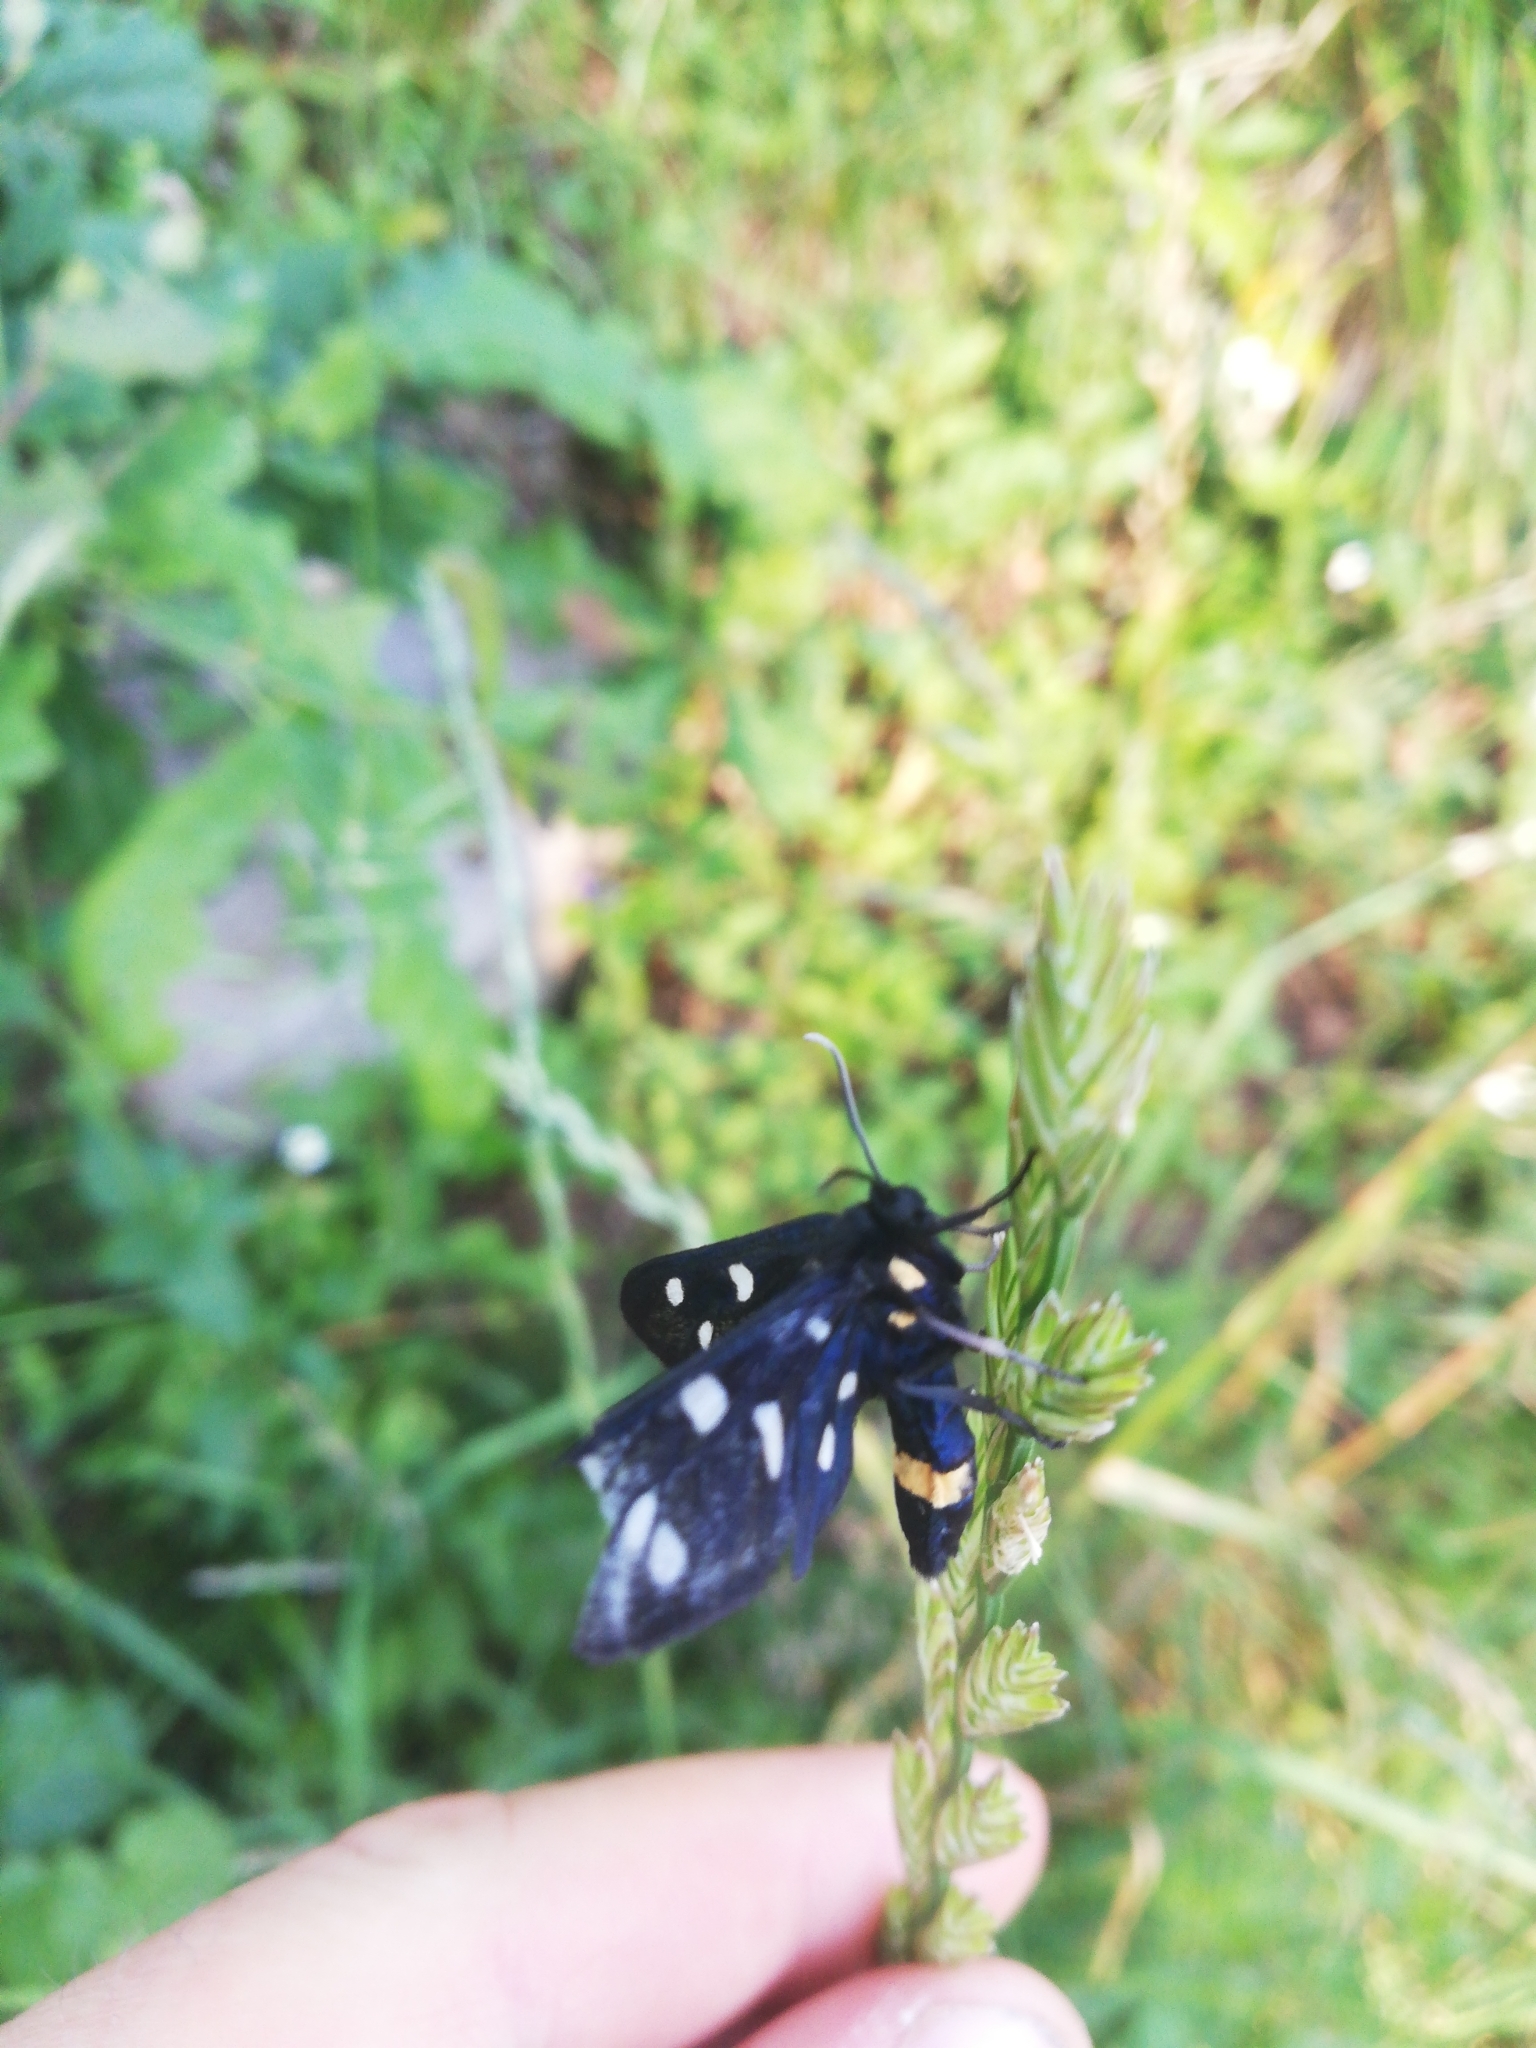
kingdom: Animalia
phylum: Arthropoda
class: Insecta
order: Lepidoptera
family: Erebidae
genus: Amata
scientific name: Amata phegea
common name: Nine-spotted
